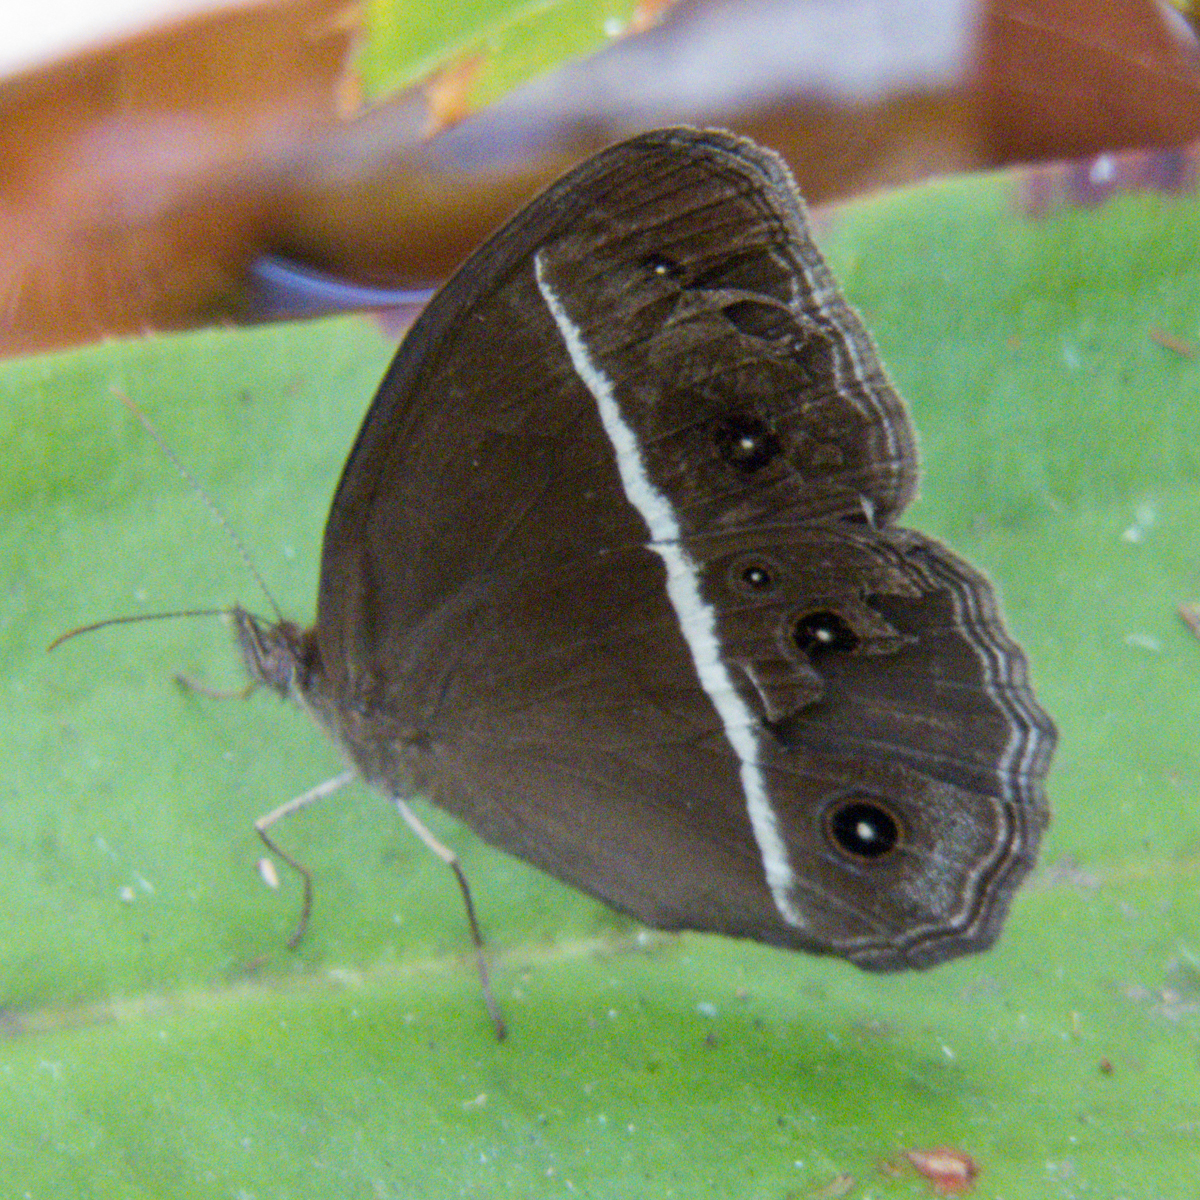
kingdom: Animalia
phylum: Arthropoda
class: Insecta
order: Lepidoptera
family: Nymphalidae
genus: Orsotriaena
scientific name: Orsotriaena medus
